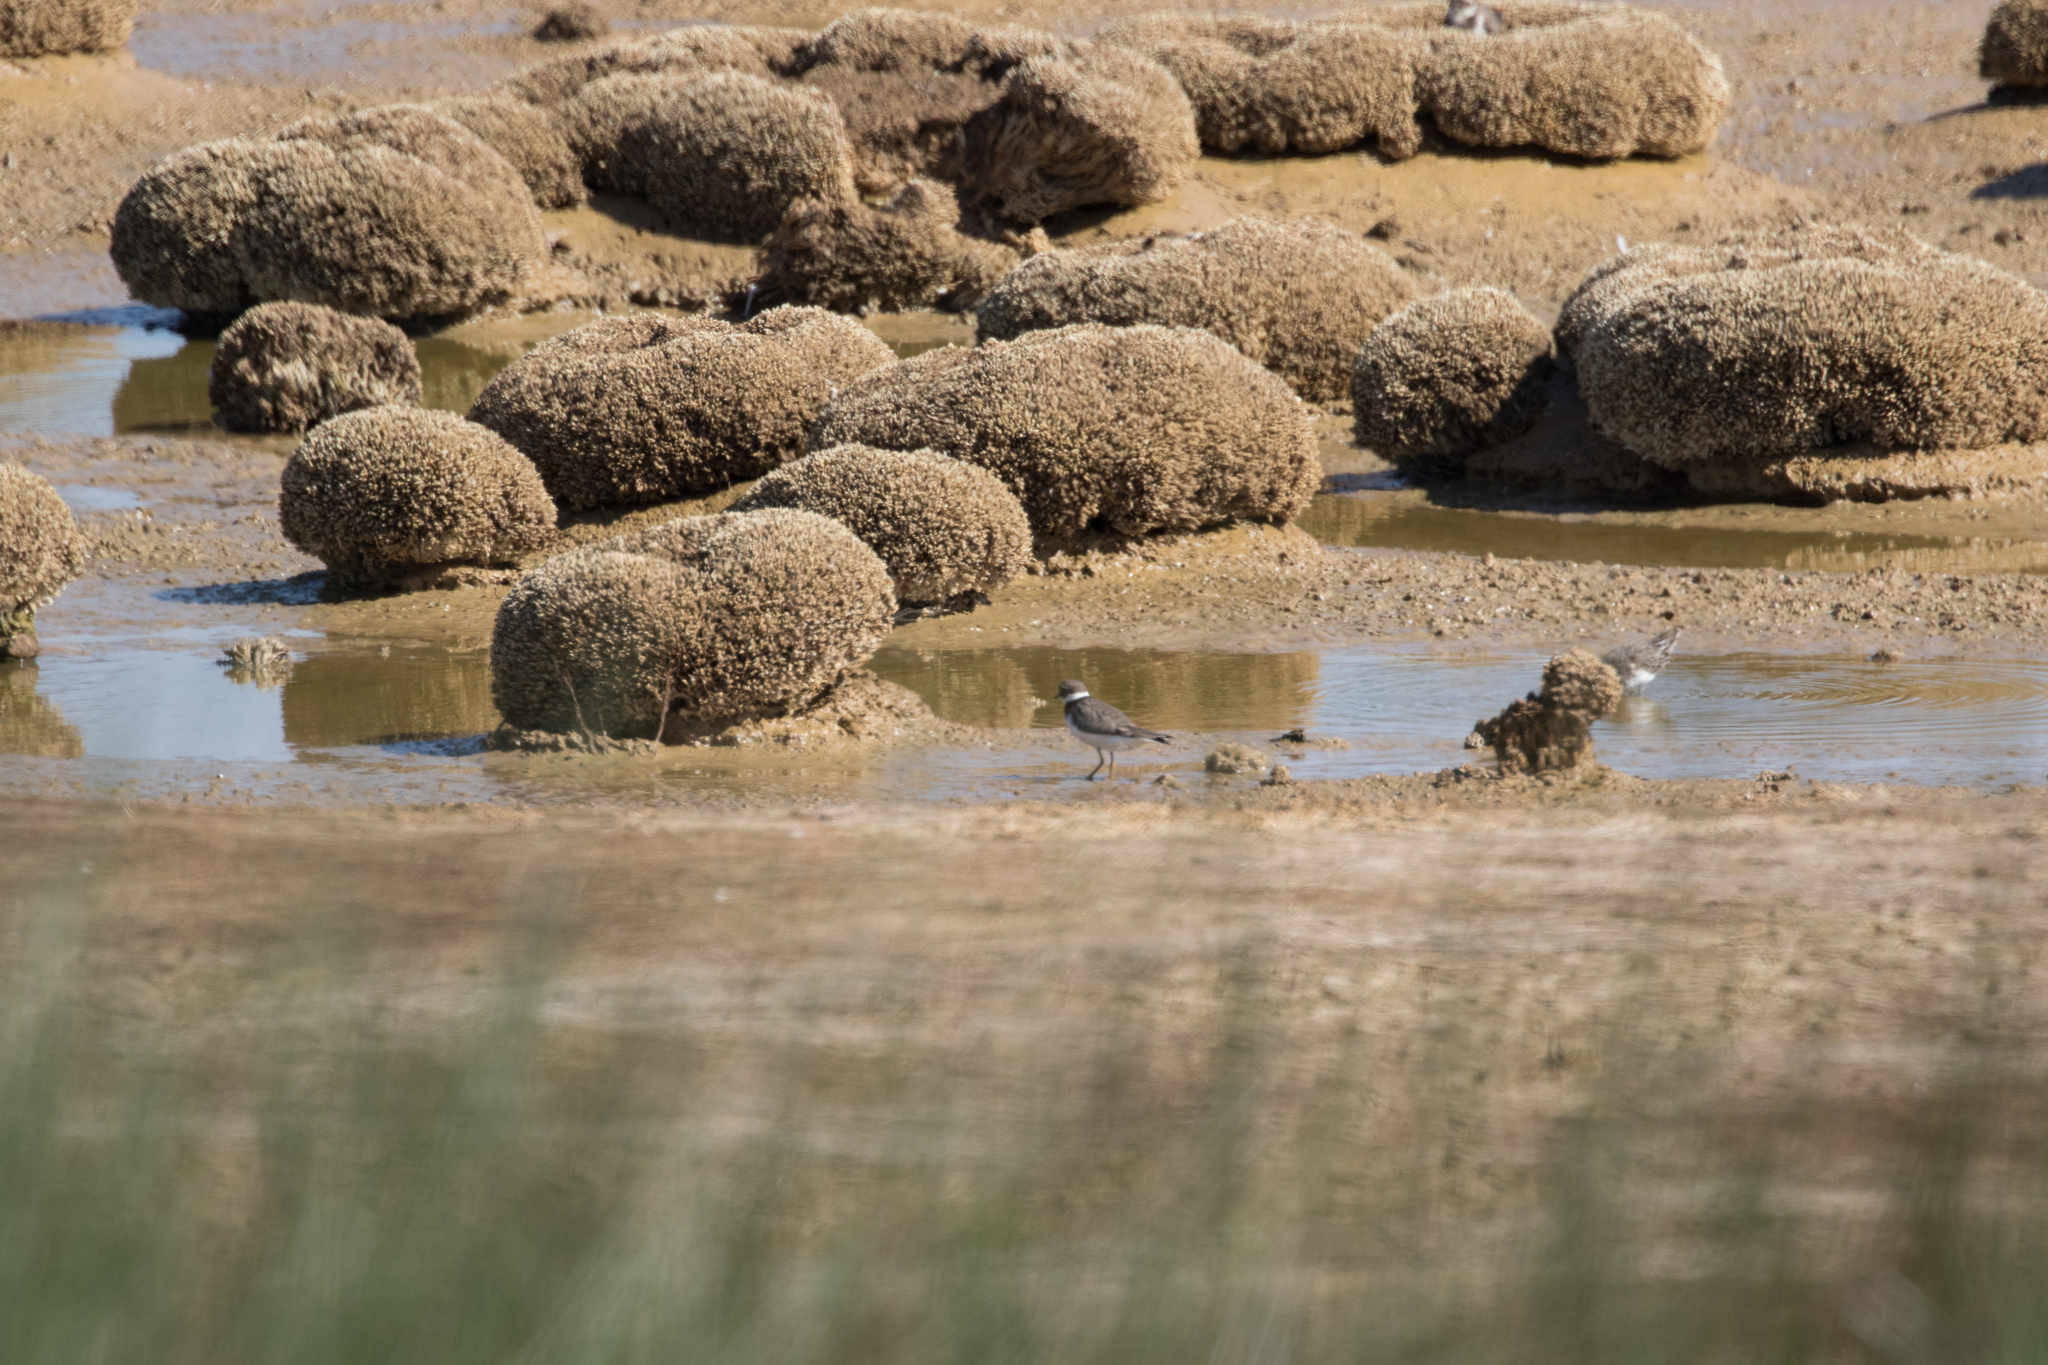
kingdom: Animalia
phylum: Chordata
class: Aves
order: Charadriiformes
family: Charadriidae
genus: Charadrius
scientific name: Charadrius hiaticula
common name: Common ringed plover
